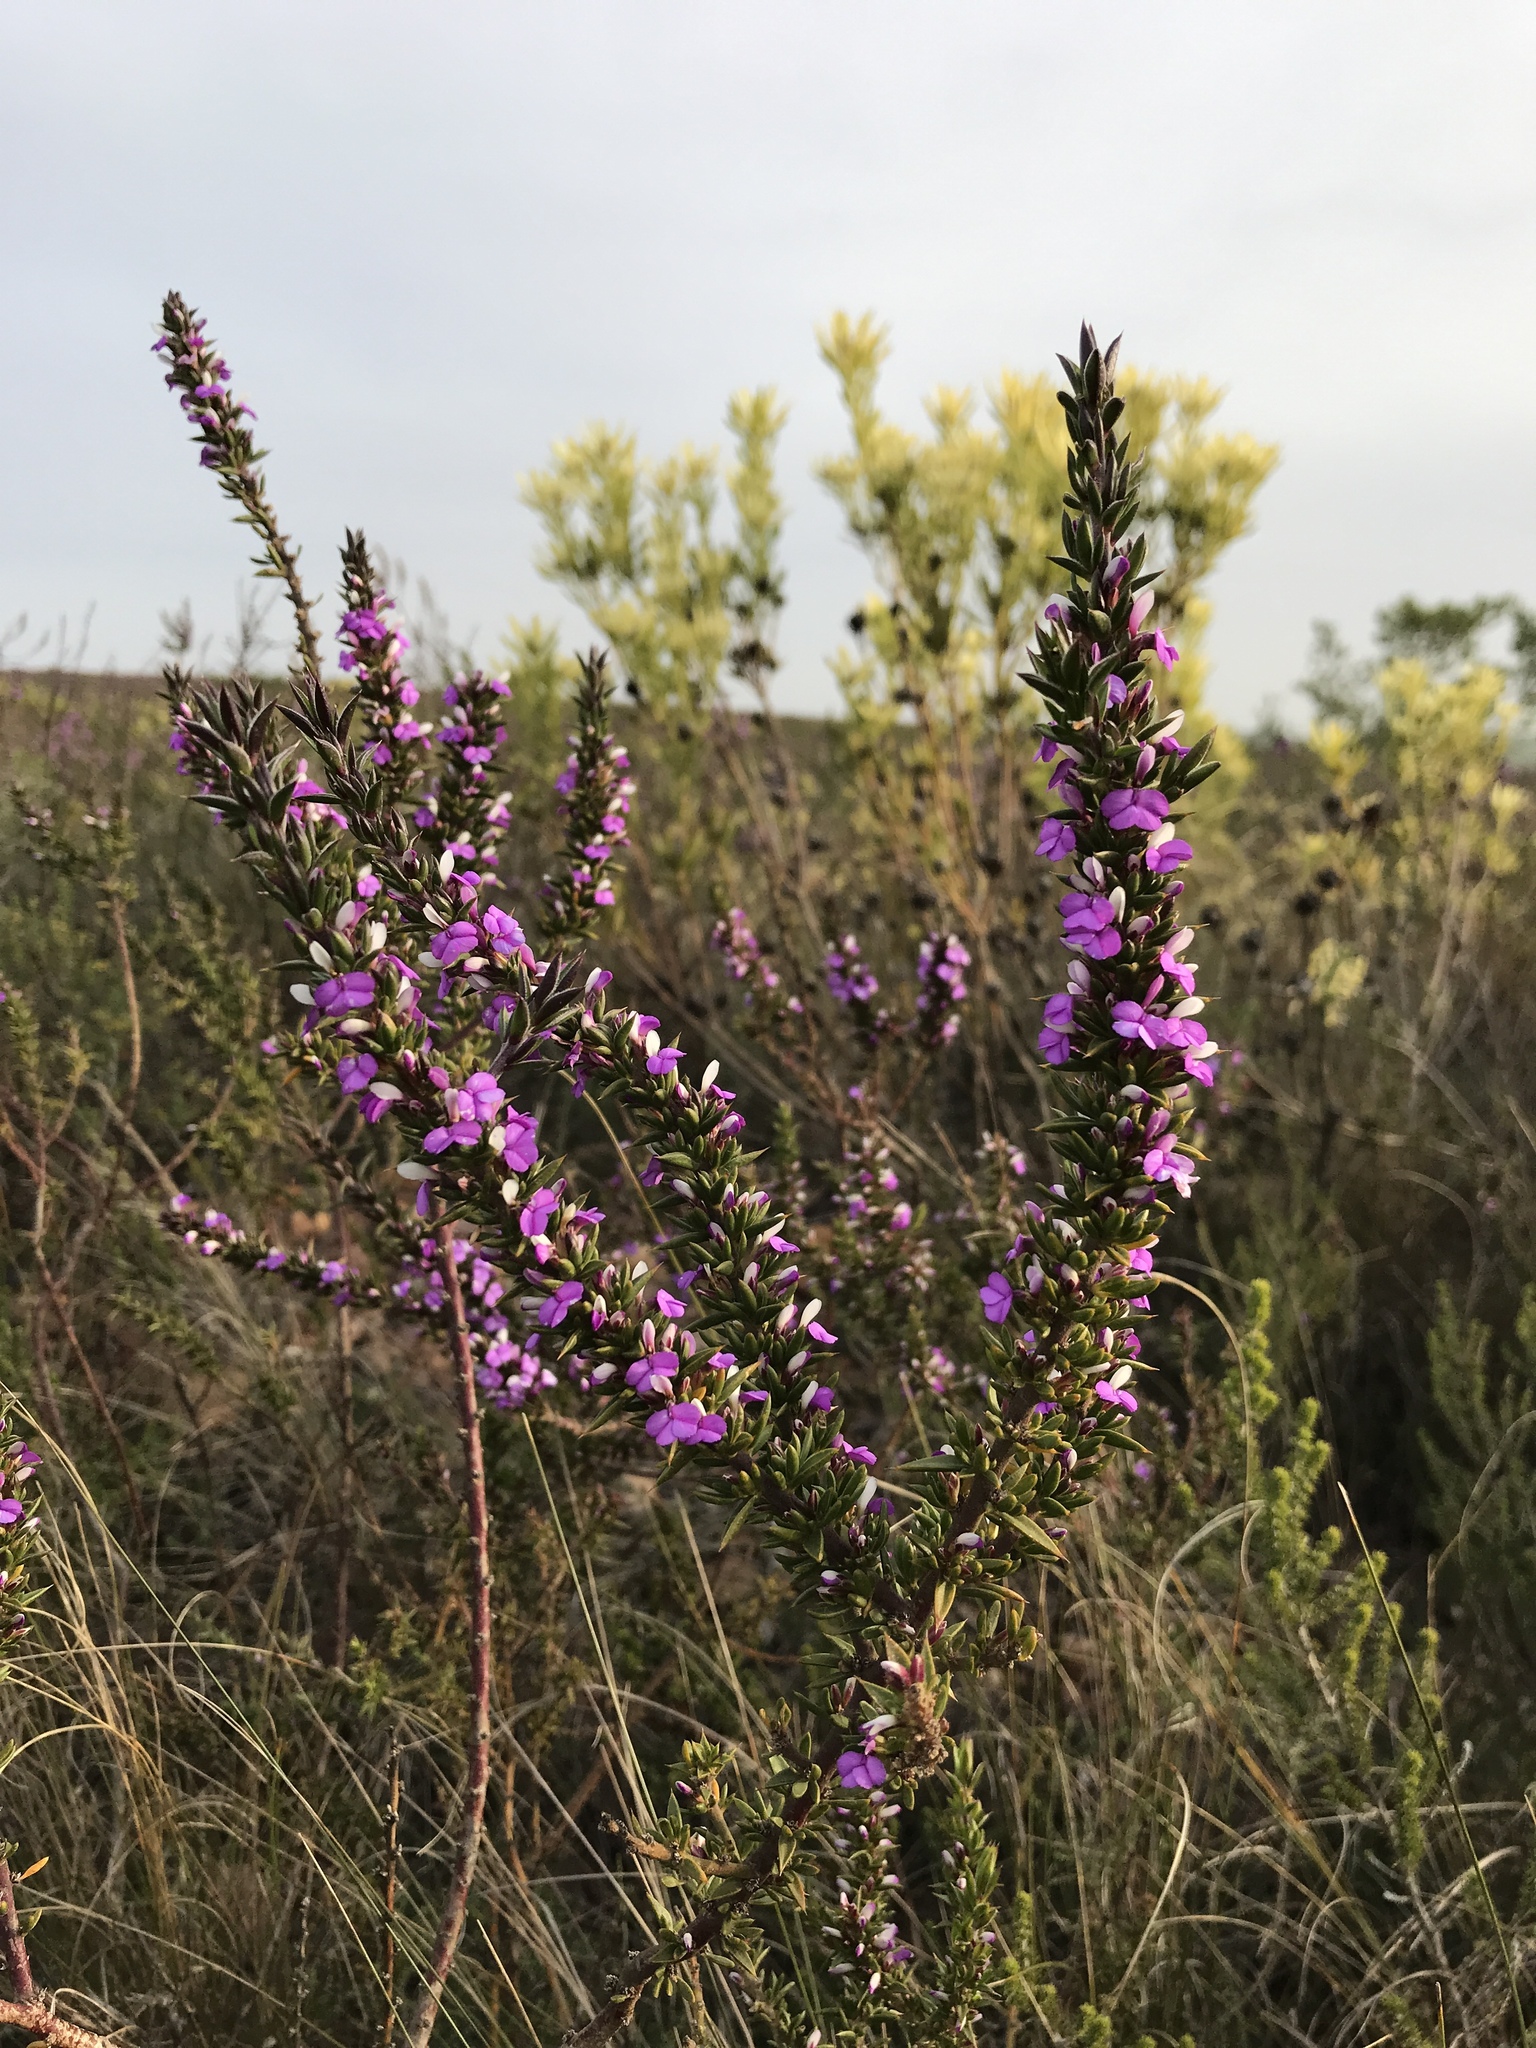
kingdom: Plantae
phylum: Tracheophyta
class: Magnoliopsida
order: Fabales
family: Polygalaceae
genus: Muraltia
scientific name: Muraltia heisteria
